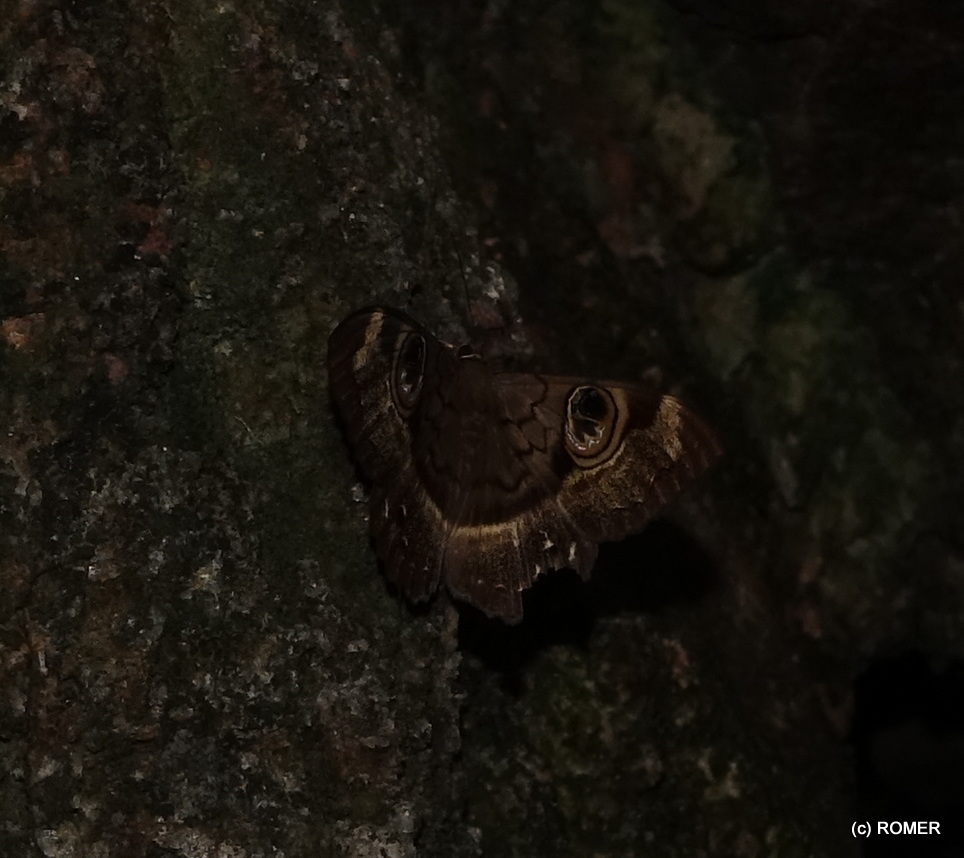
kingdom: Animalia
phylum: Arthropoda
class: Insecta
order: Lepidoptera
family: Erebidae
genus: Cyligramma
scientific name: Cyligramma duplex
